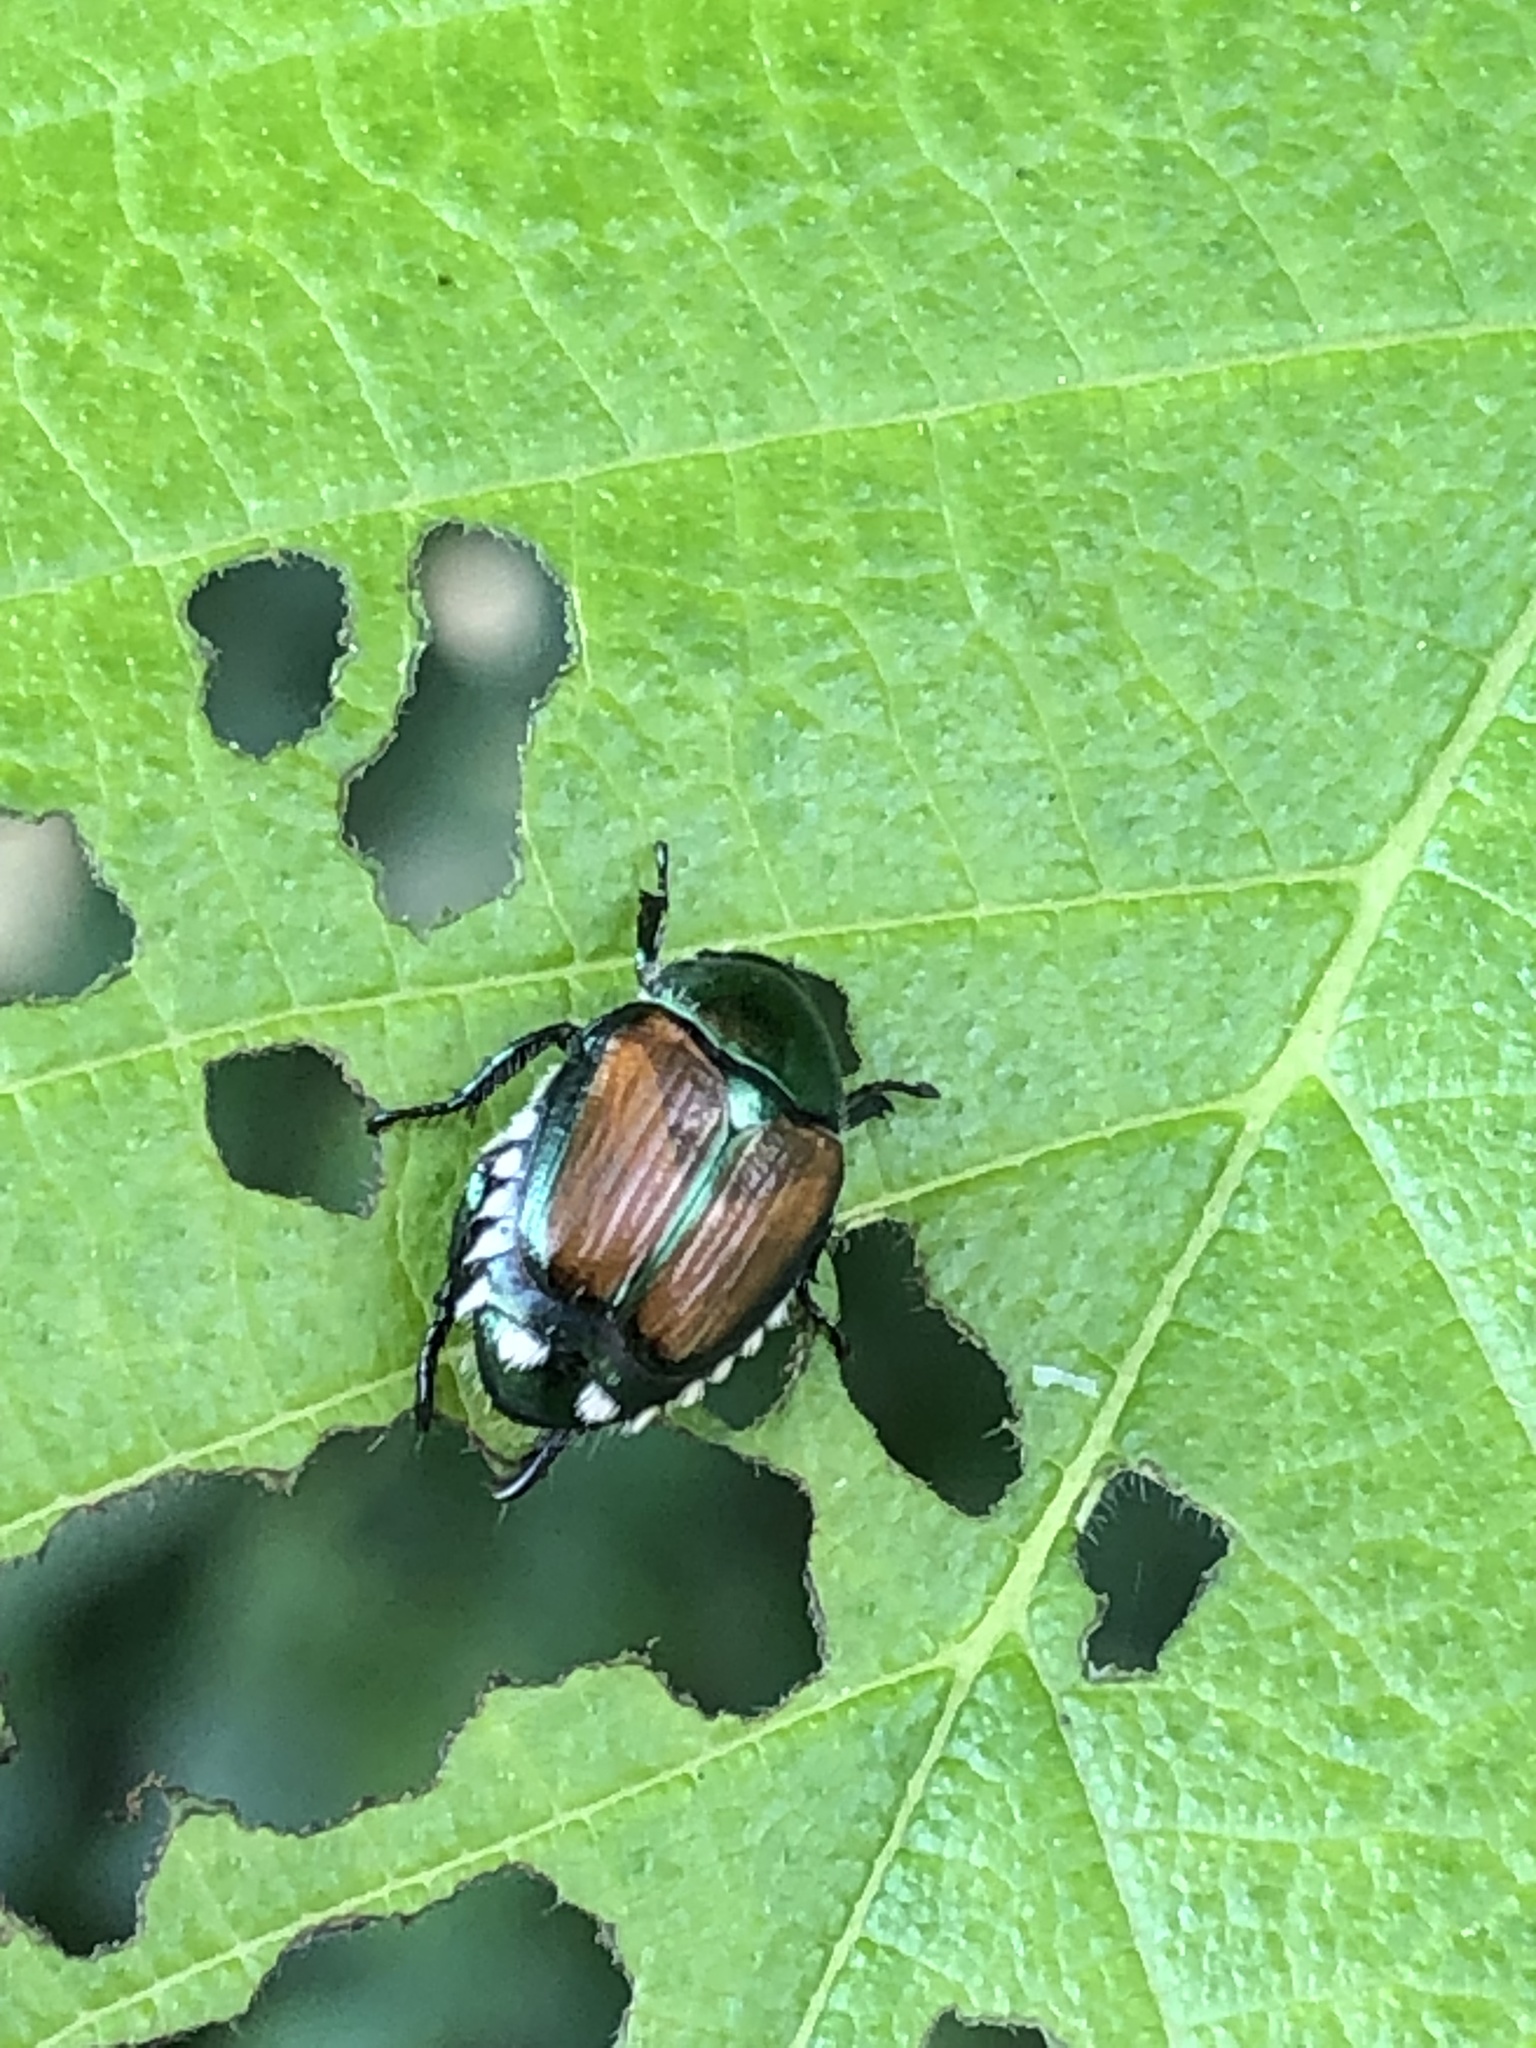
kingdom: Animalia
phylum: Arthropoda
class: Insecta
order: Coleoptera
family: Scarabaeidae
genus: Popillia
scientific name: Popillia japonica
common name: Japanese beetle
